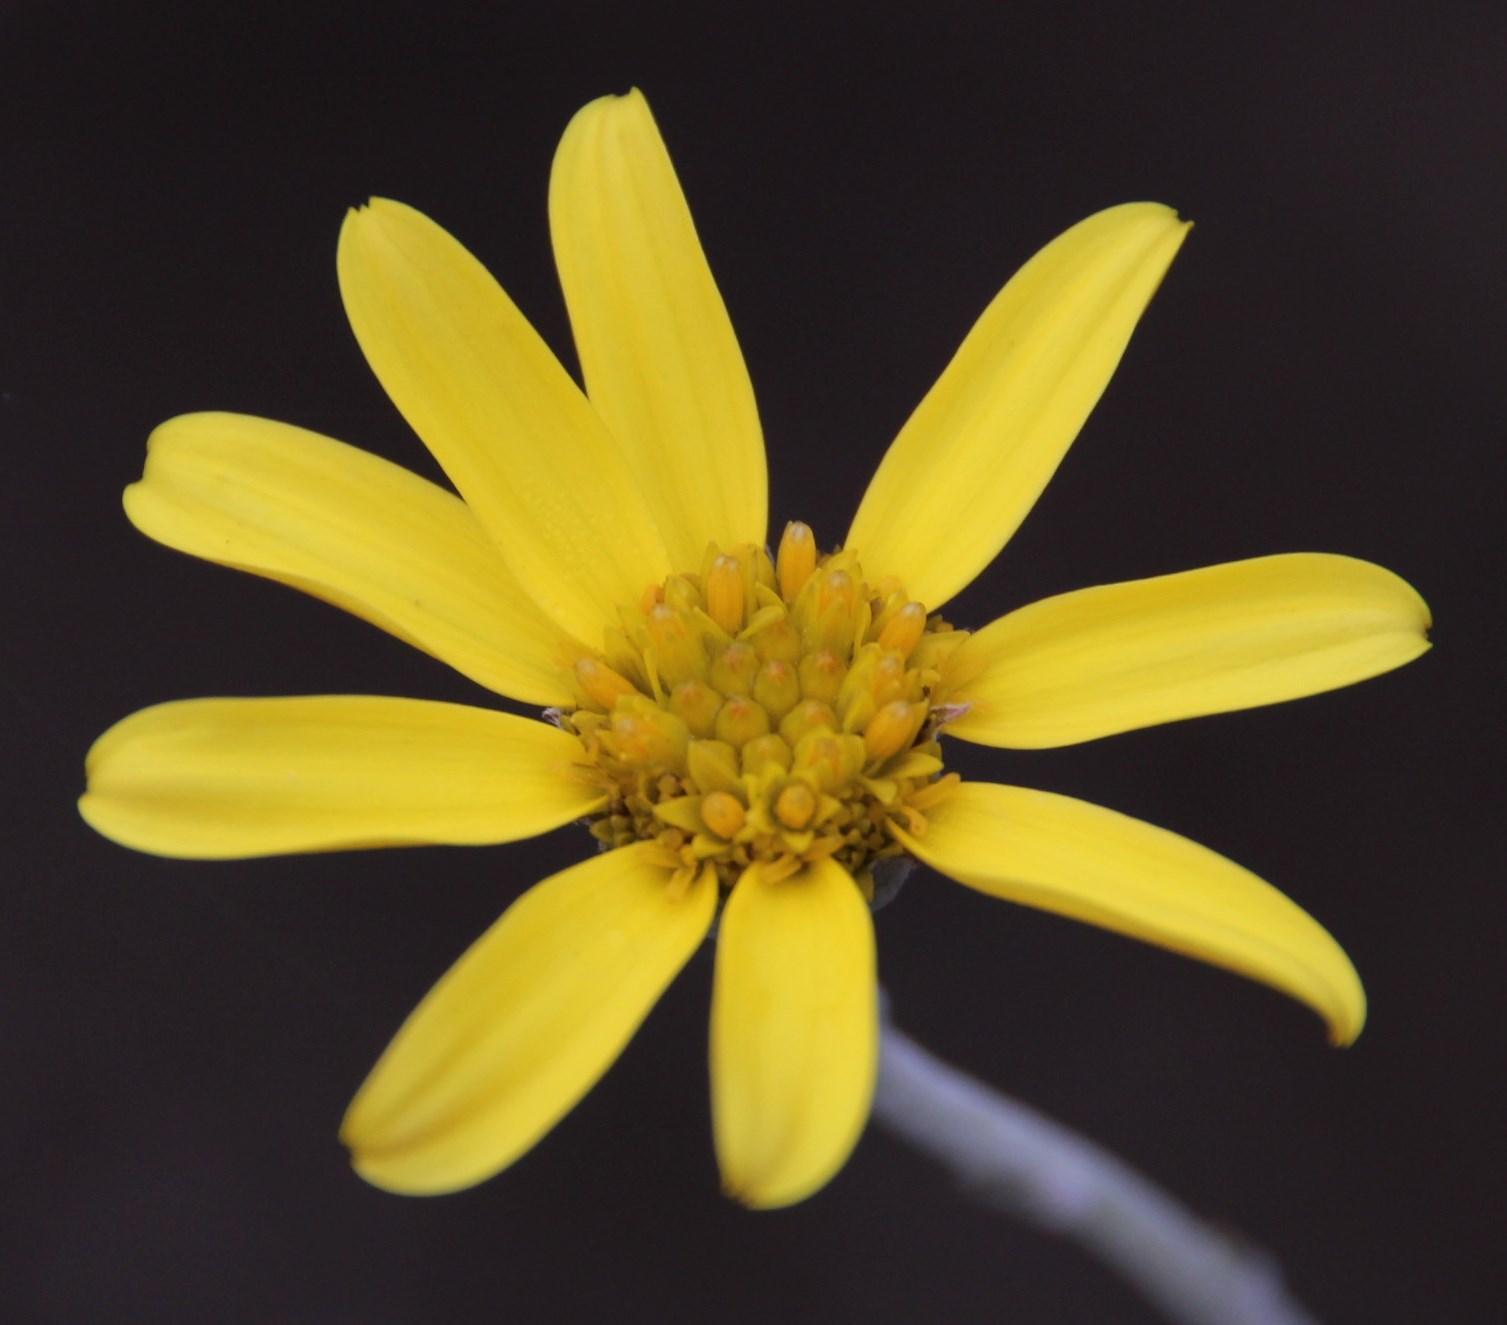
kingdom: Plantae
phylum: Tracheophyta
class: Magnoliopsida
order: Asterales
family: Asteraceae
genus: Osteospermum
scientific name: Osteospermum incanum
